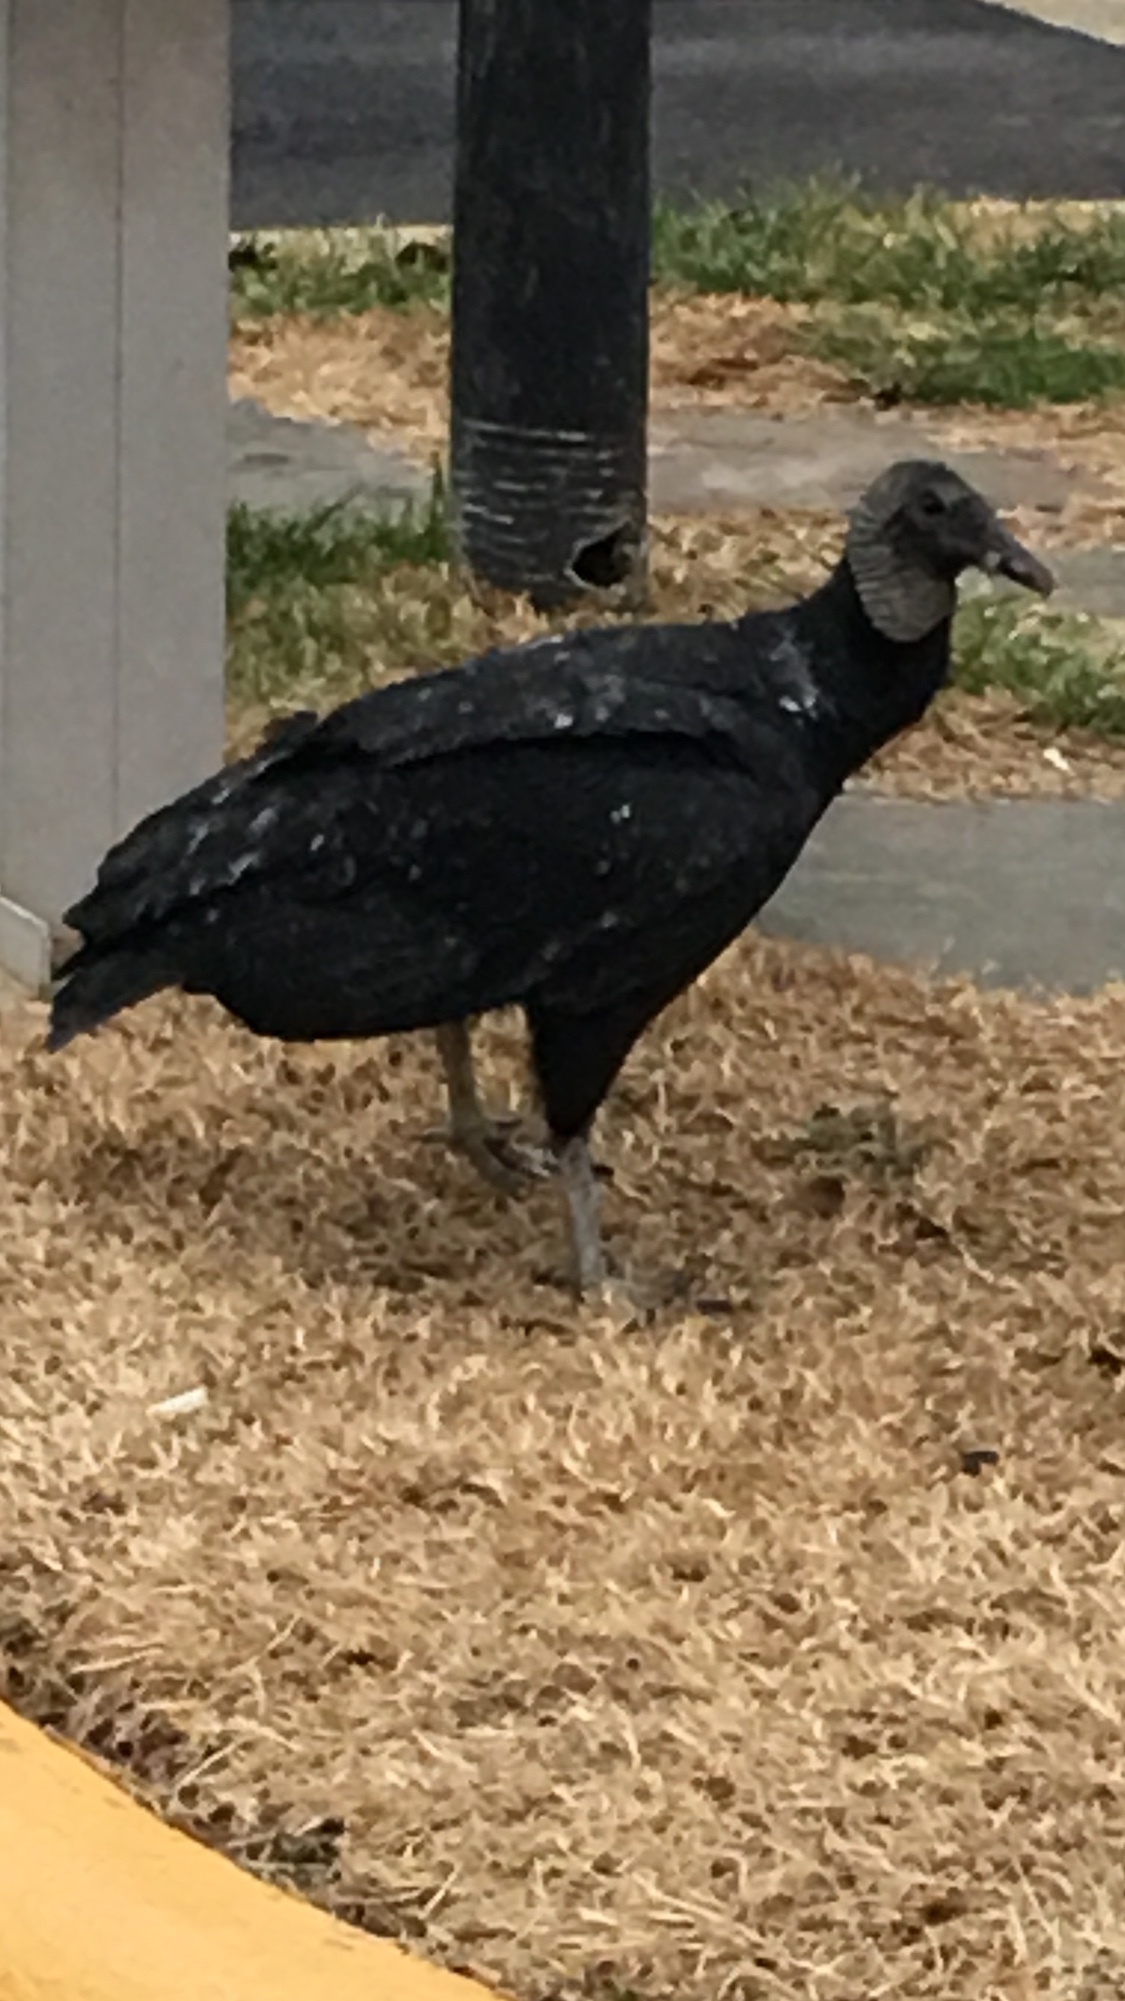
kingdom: Animalia
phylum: Chordata
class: Aves
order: Accipitriformes
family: Cathartidae
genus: Coragyps
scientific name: Coragyps atratus
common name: Black vulture
